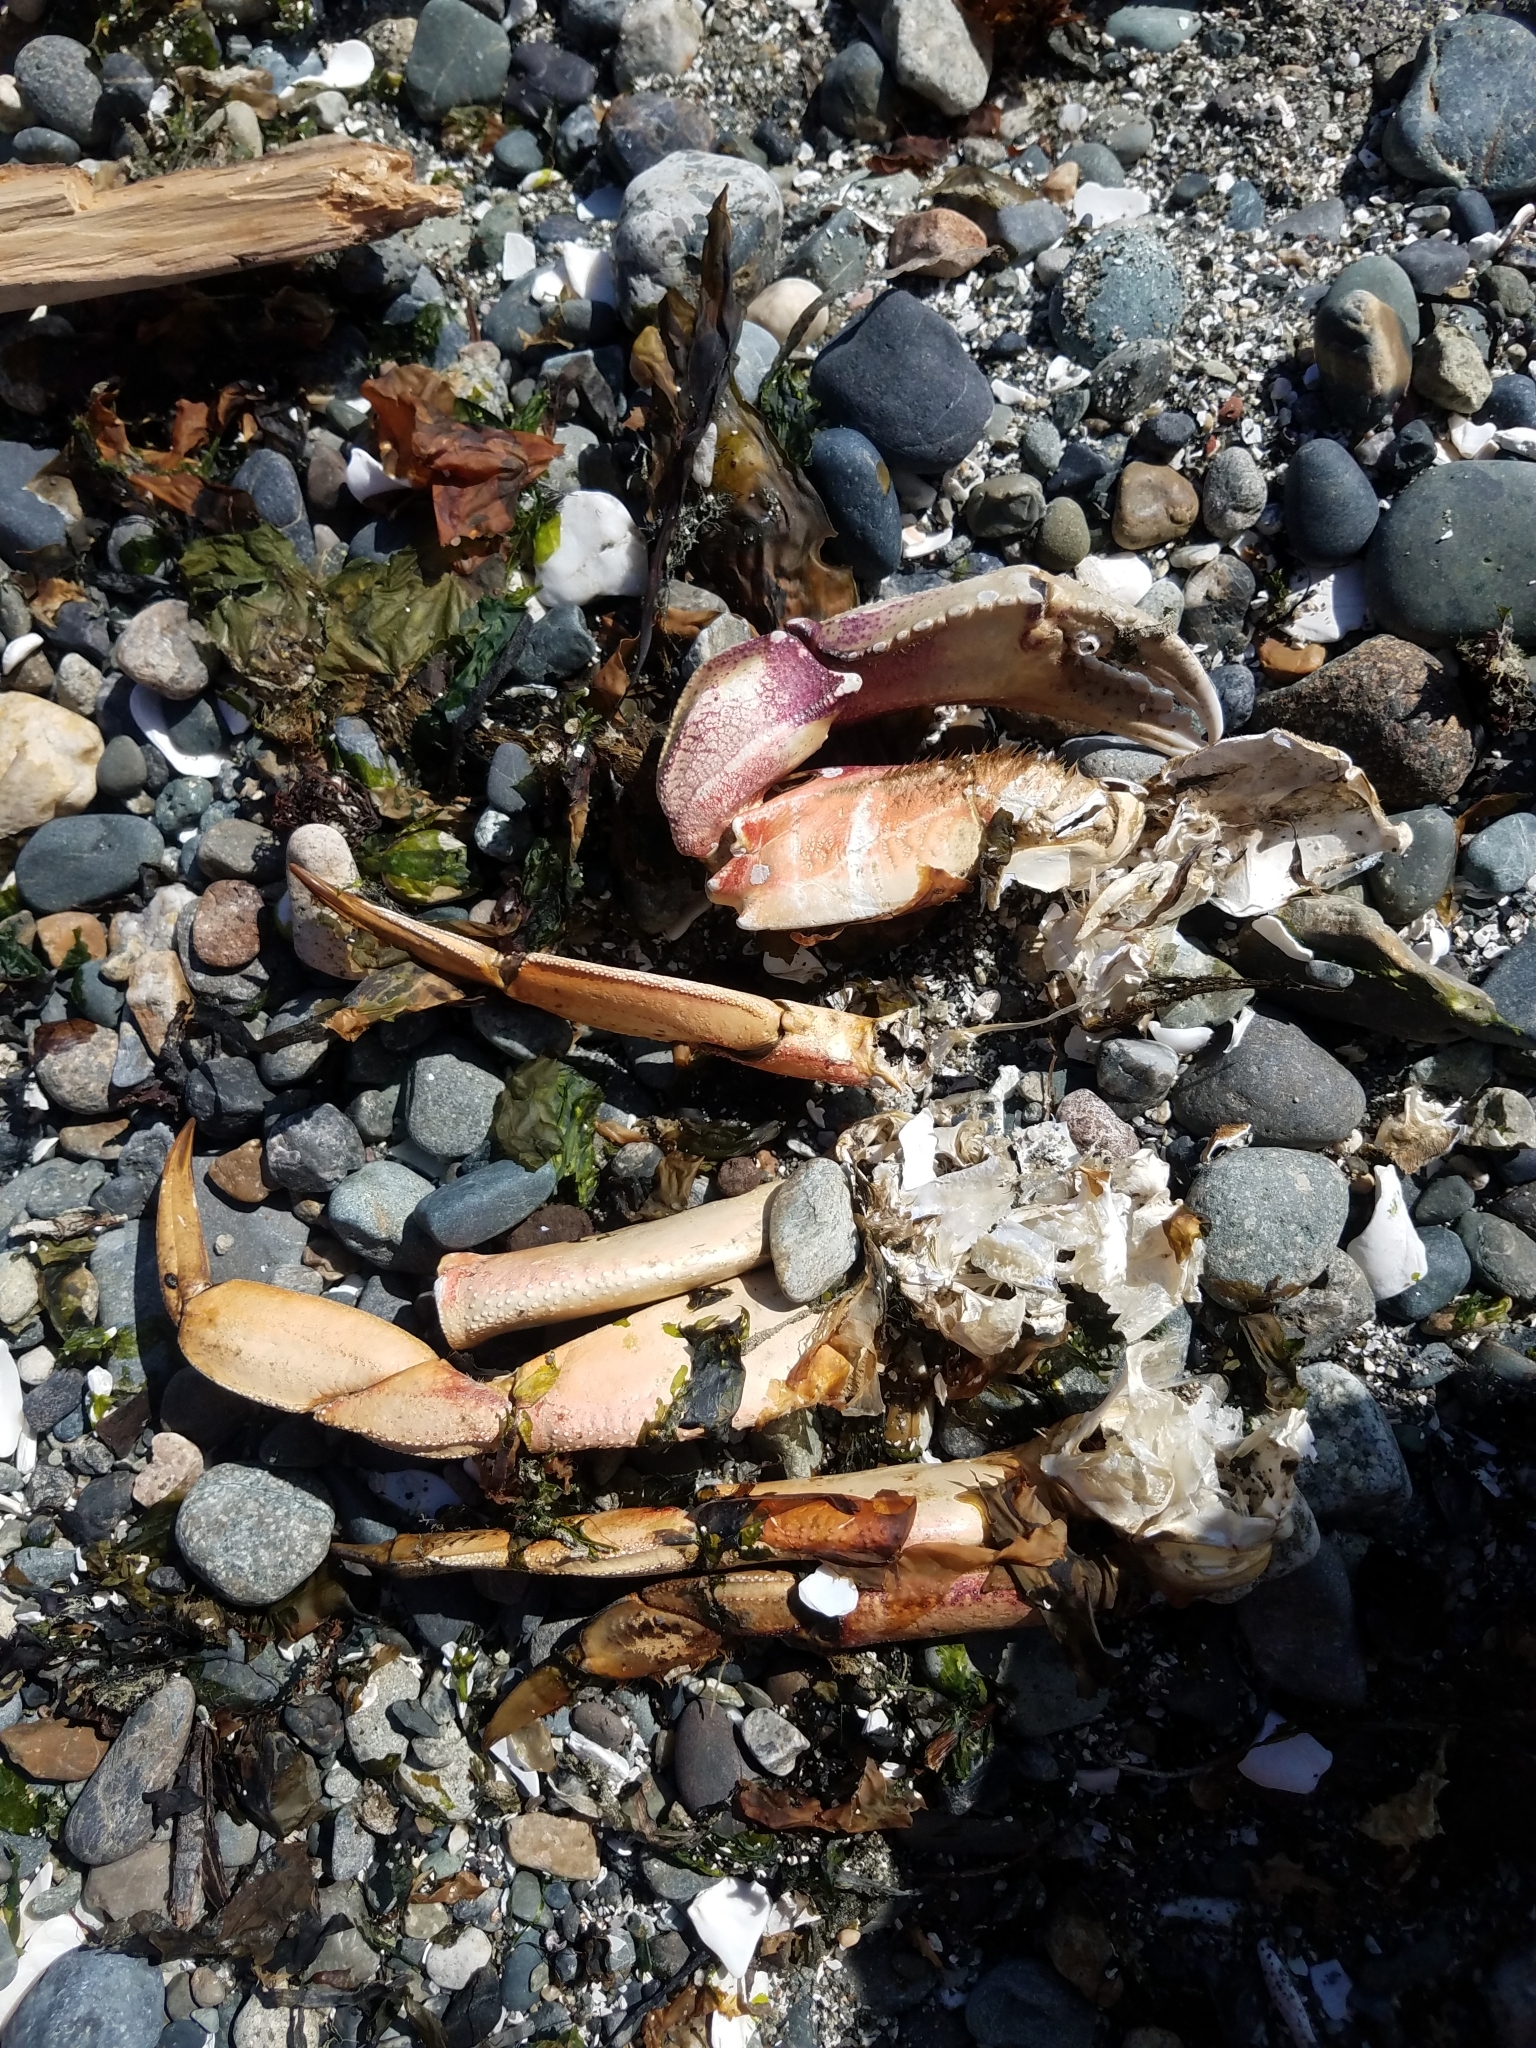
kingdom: Animalia
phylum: Arthropoda
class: Malacostraca
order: Decapoda
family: Cancridae
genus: Metacarcinus
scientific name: Metacarcinus magister
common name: Californian crab
